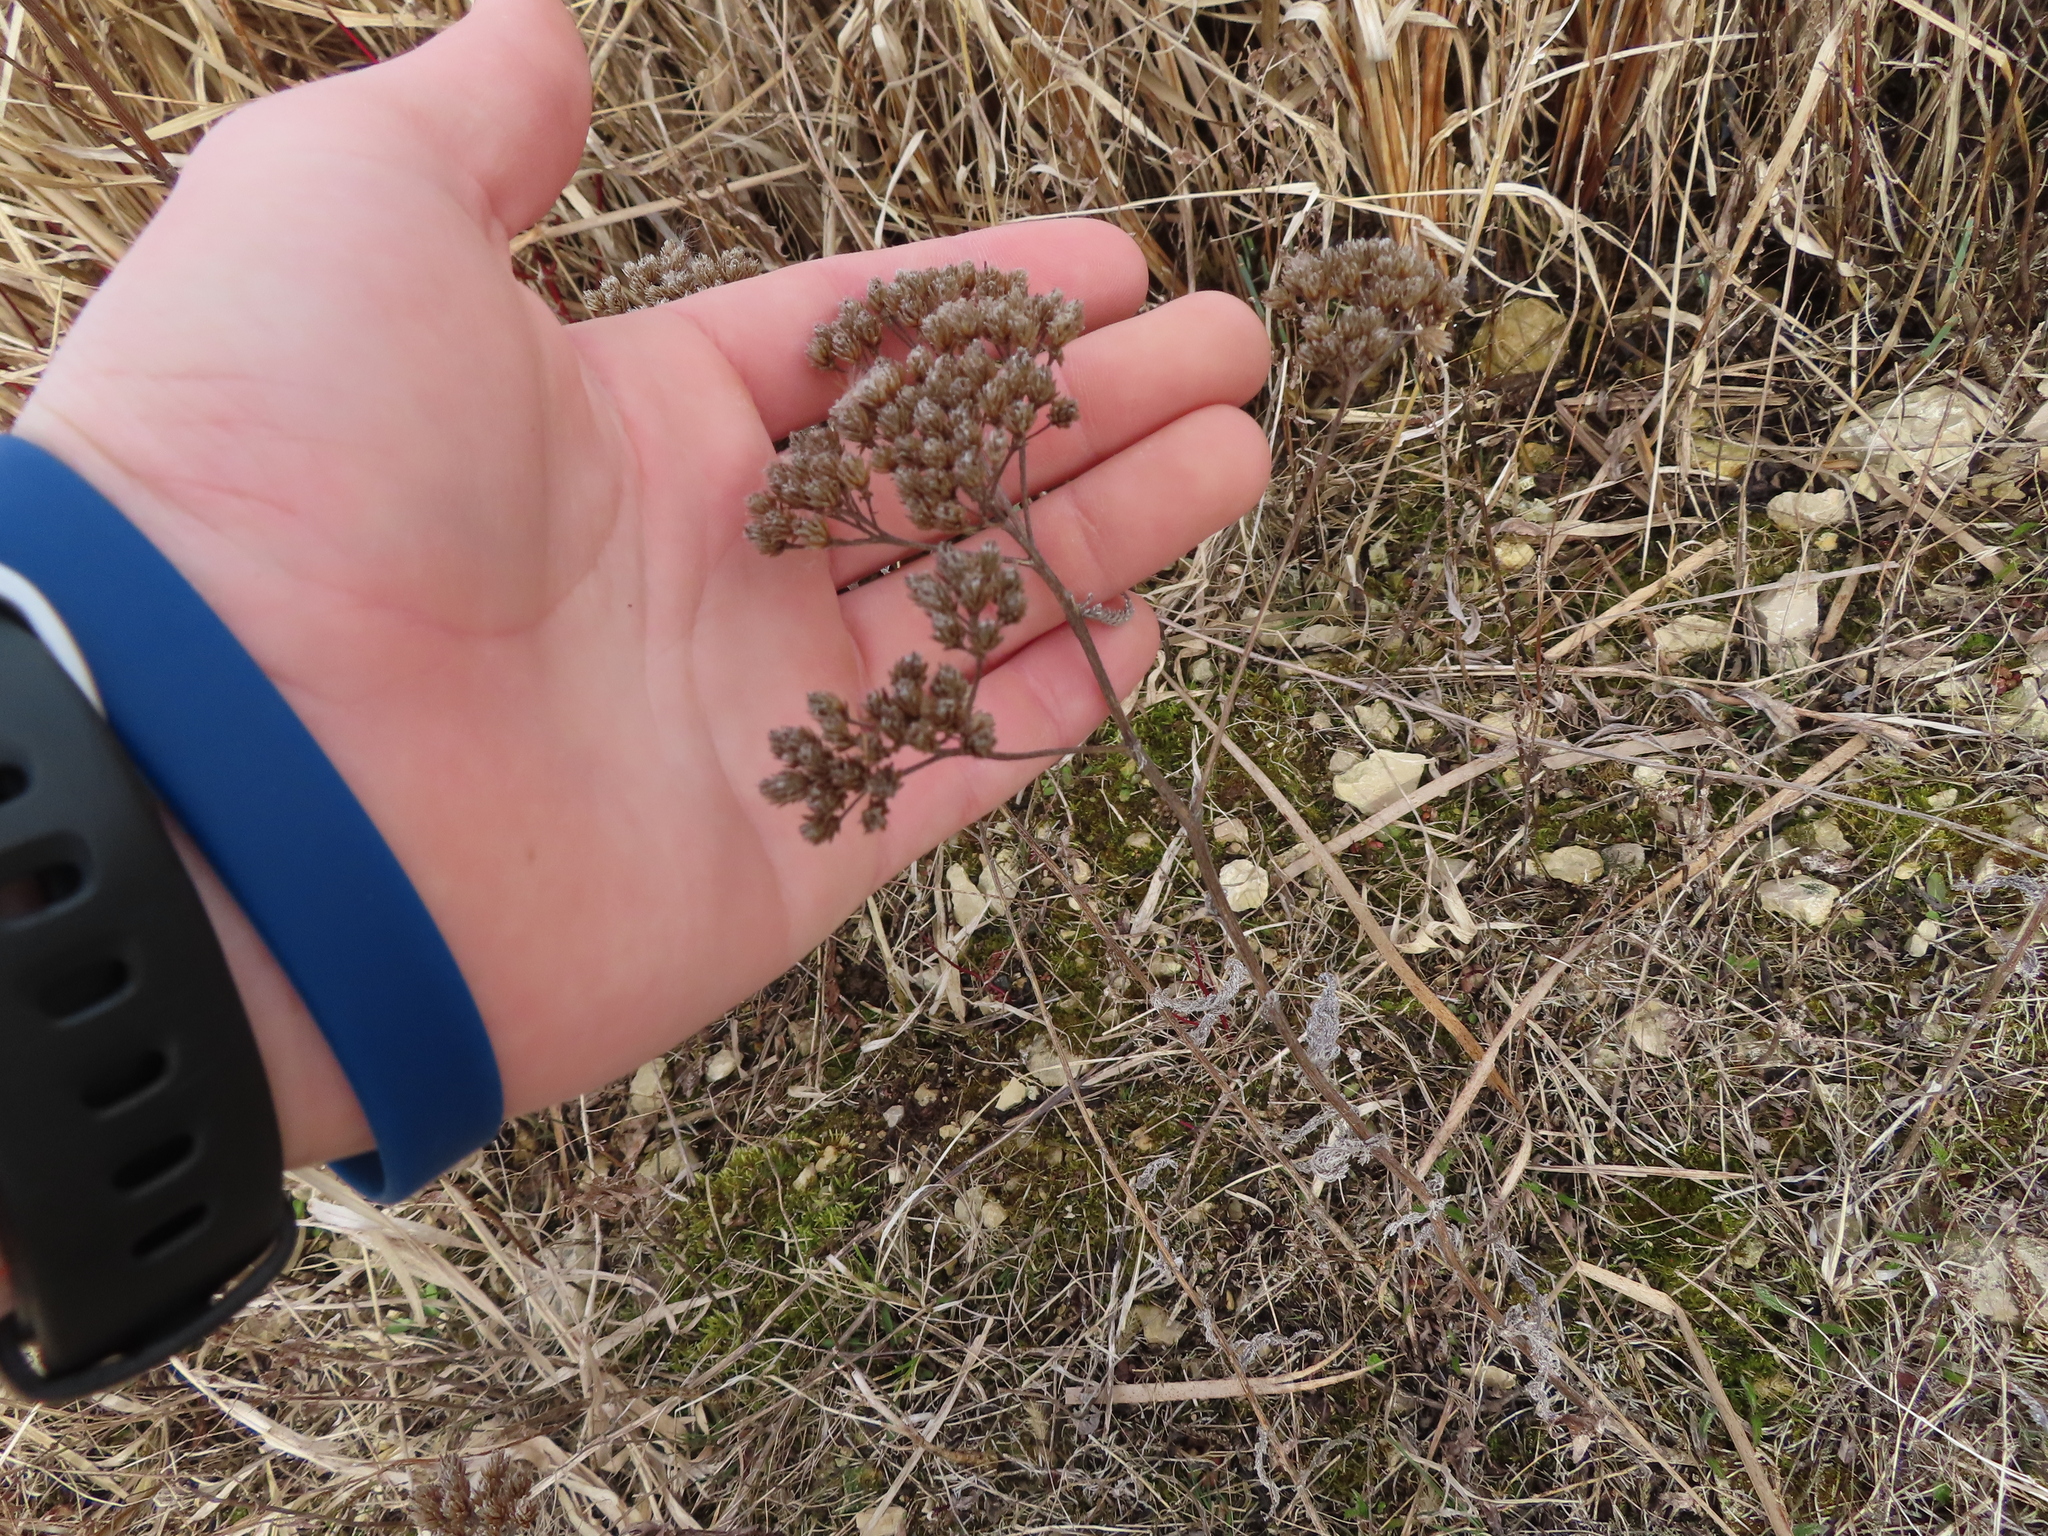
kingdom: Plantae
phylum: Tracheophyta
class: Magnoliopsida
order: Asterales
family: Asteraceae
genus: Achillea
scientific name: Achillea millefolium
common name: Yarrow
